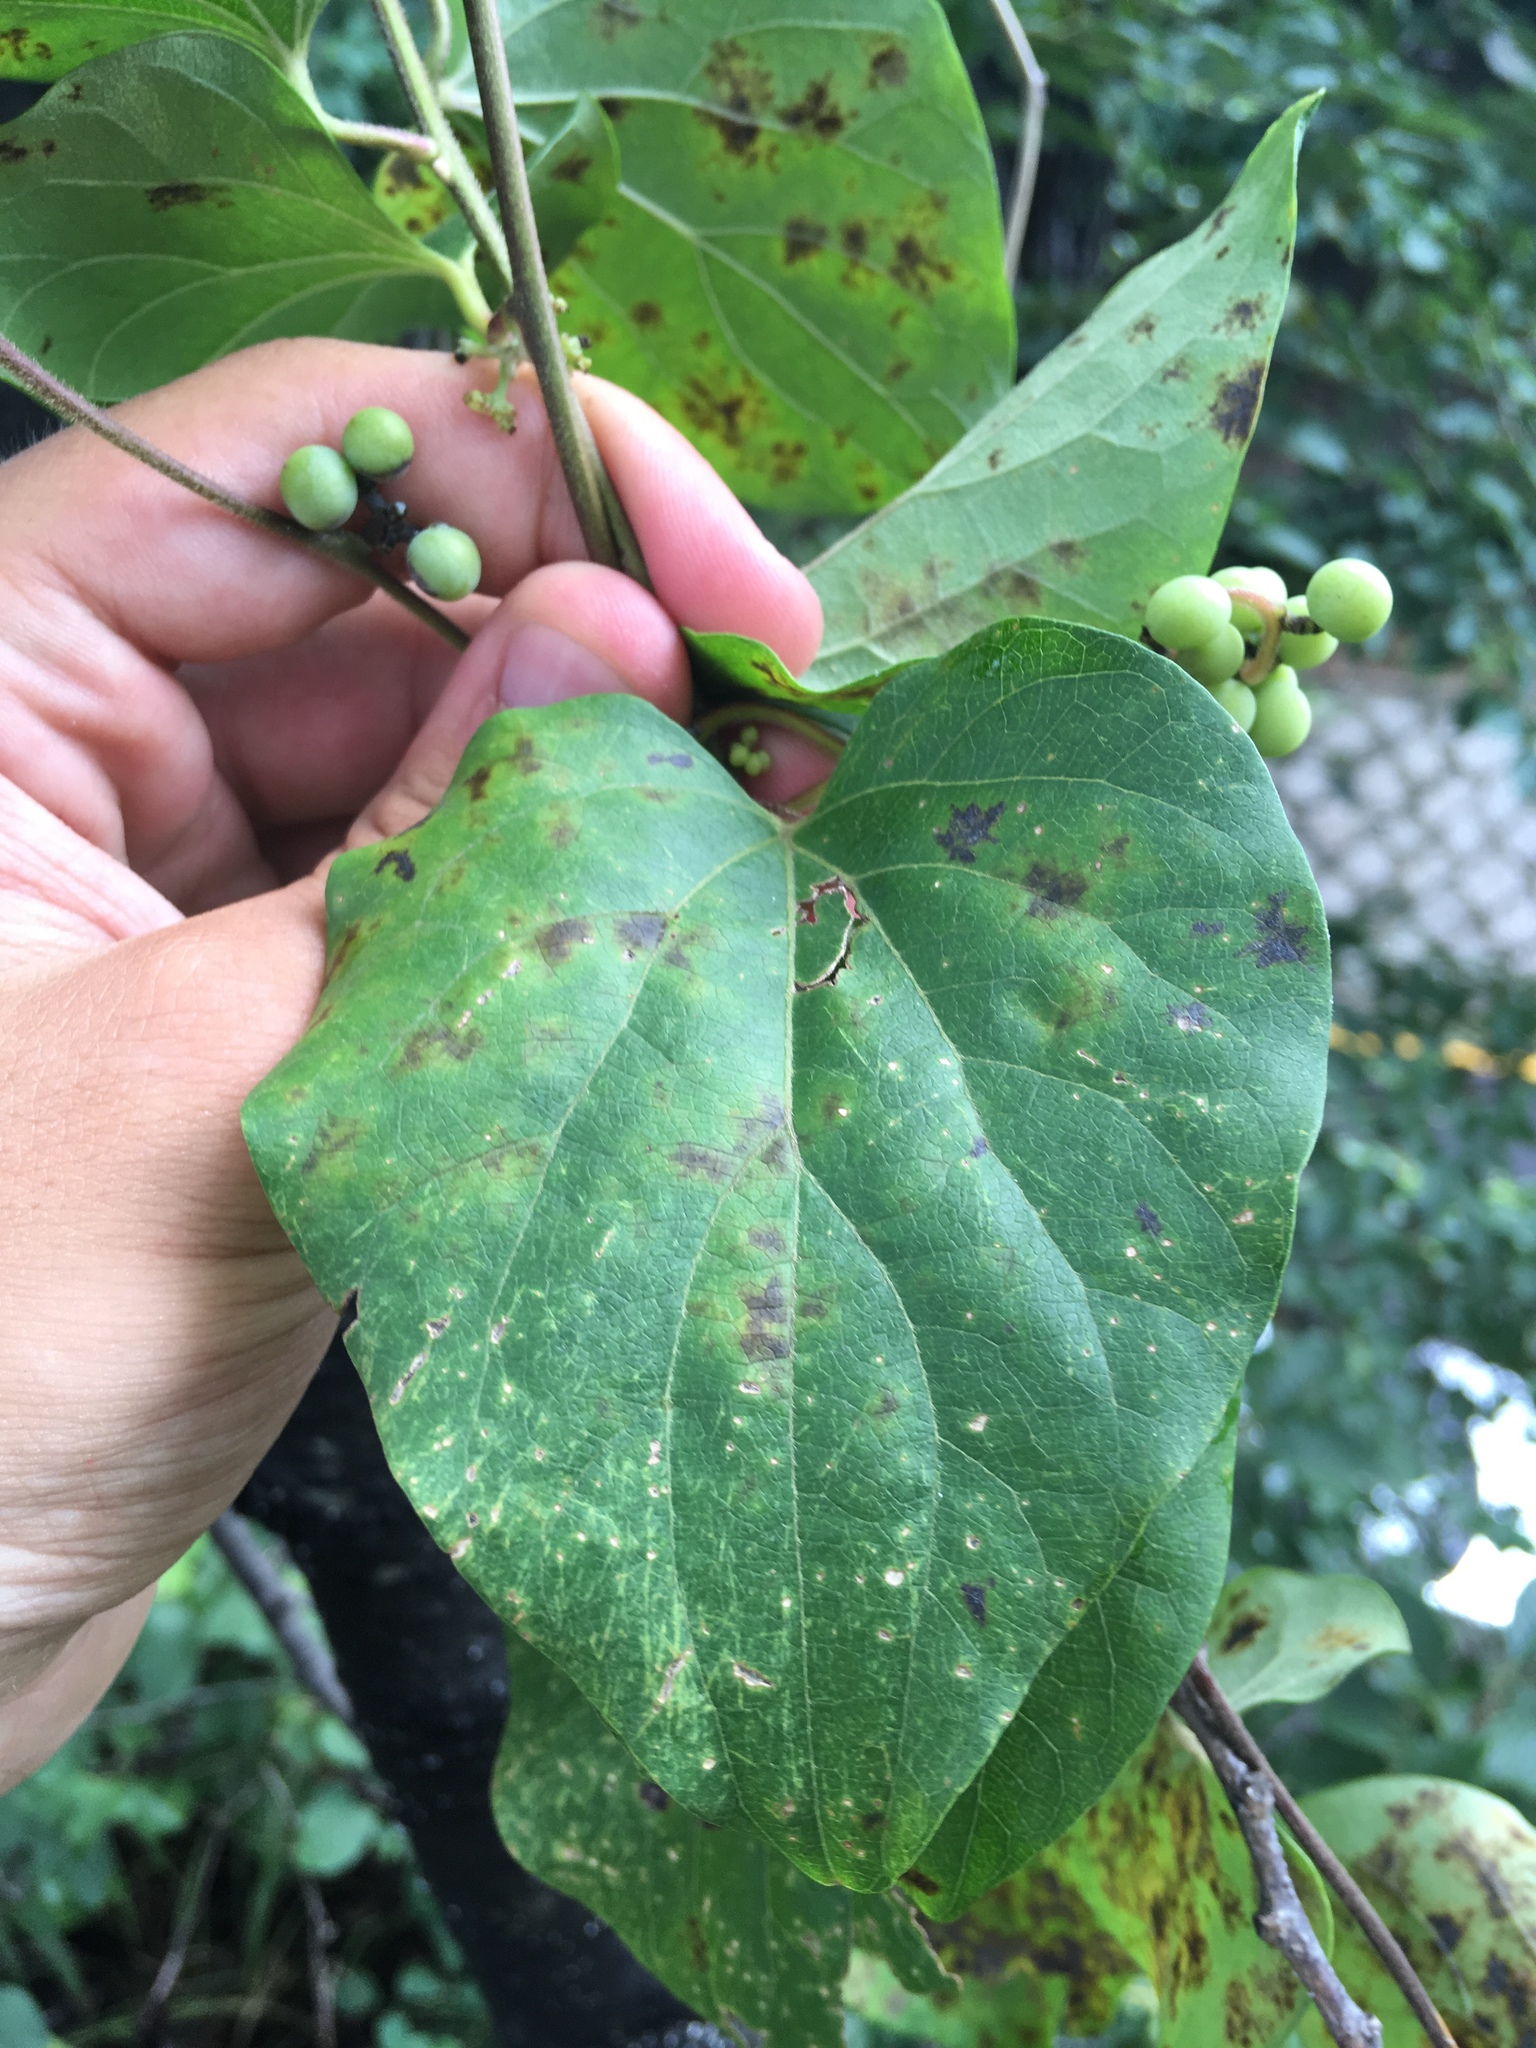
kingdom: Plantae
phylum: Tracheophyta
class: Magnoliopsida
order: Ranunculales
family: Menispermaceae
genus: Cocculus
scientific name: Cocculus orbiculatus
